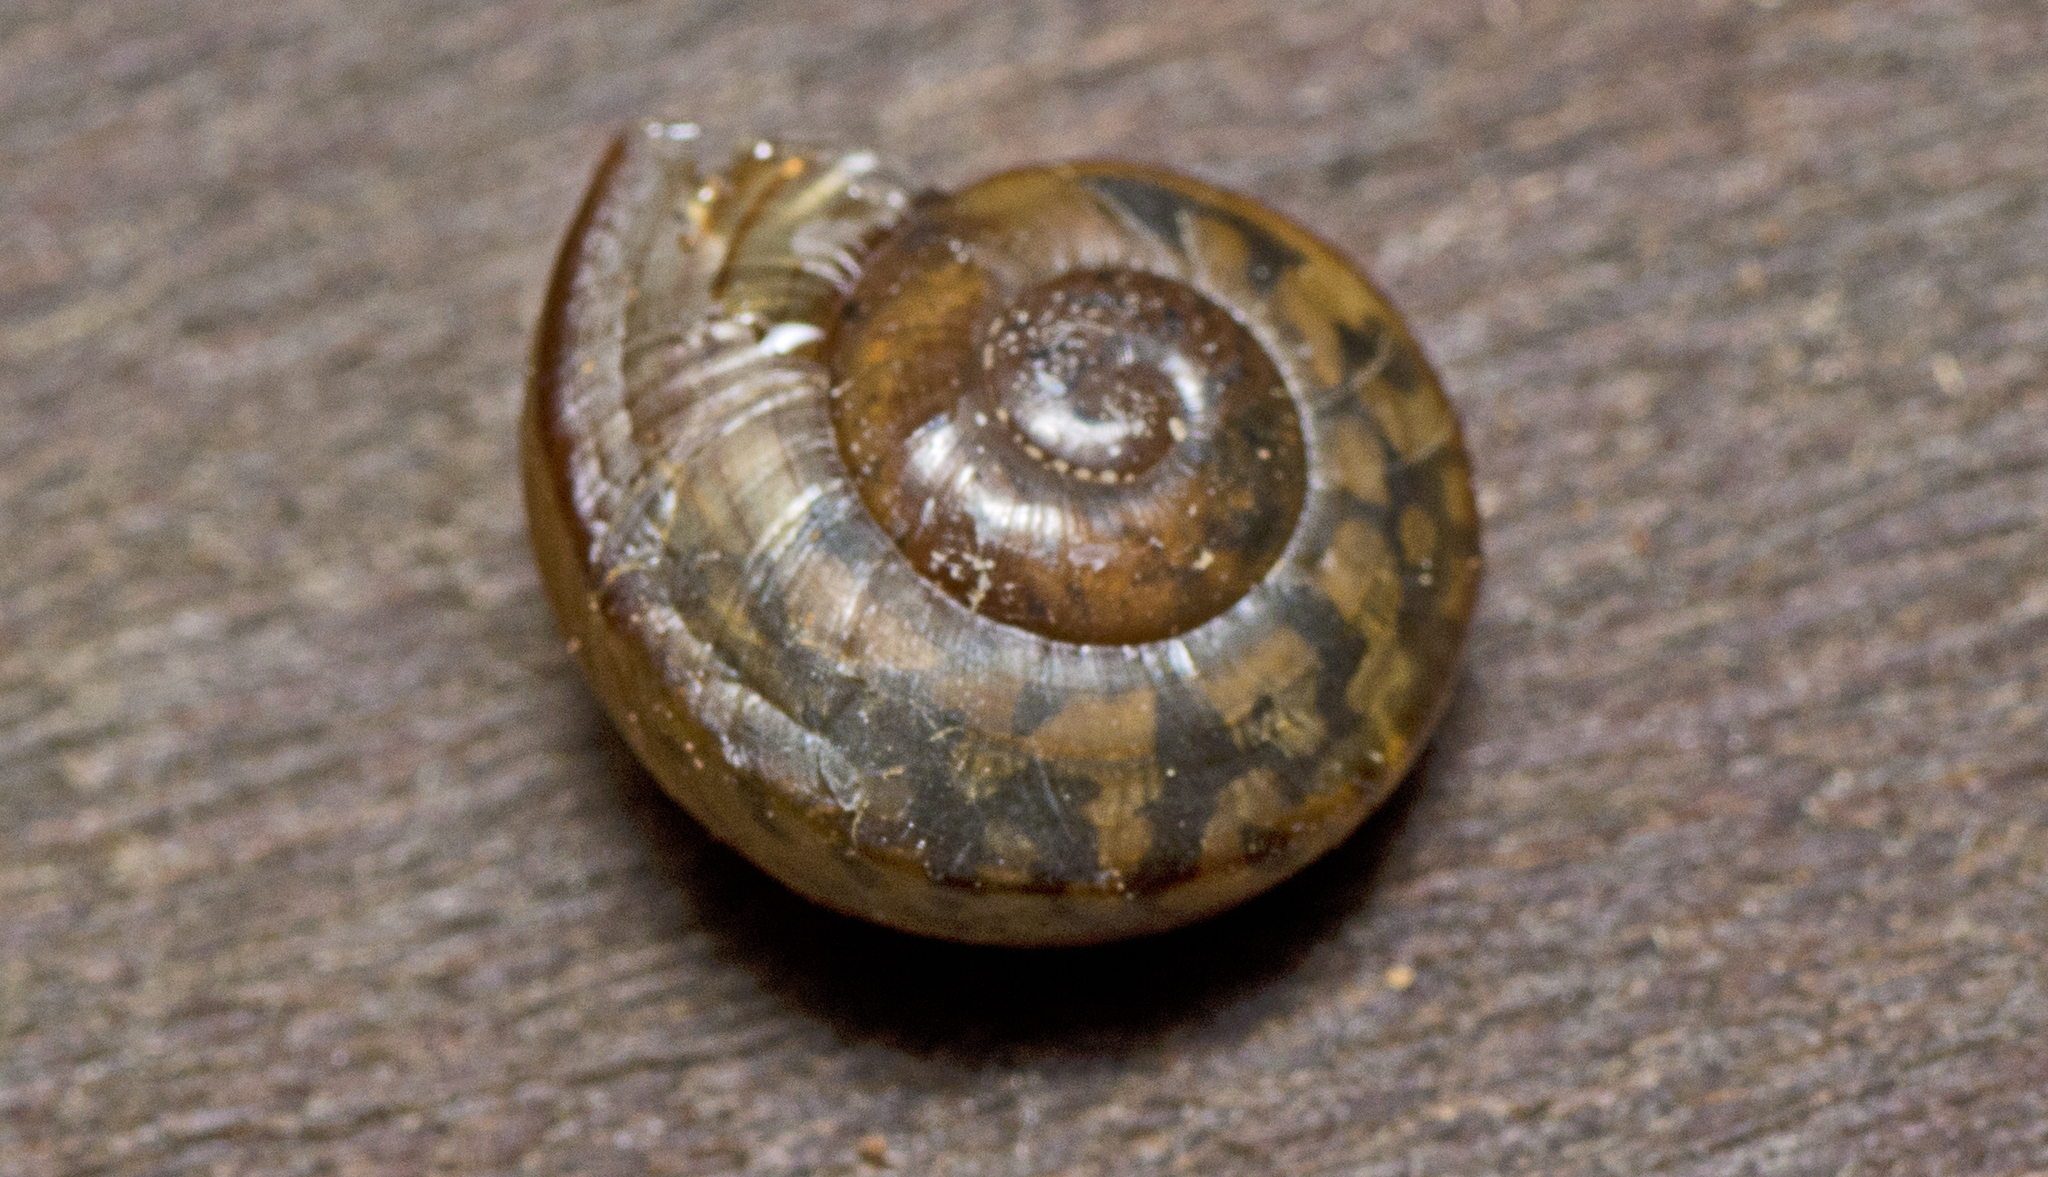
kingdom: Animalia
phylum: Mollusca
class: Gastropoda
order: Stylommatophora
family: Camaenidae
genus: Sphaerospira
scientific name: Sphaerospira fraseri
